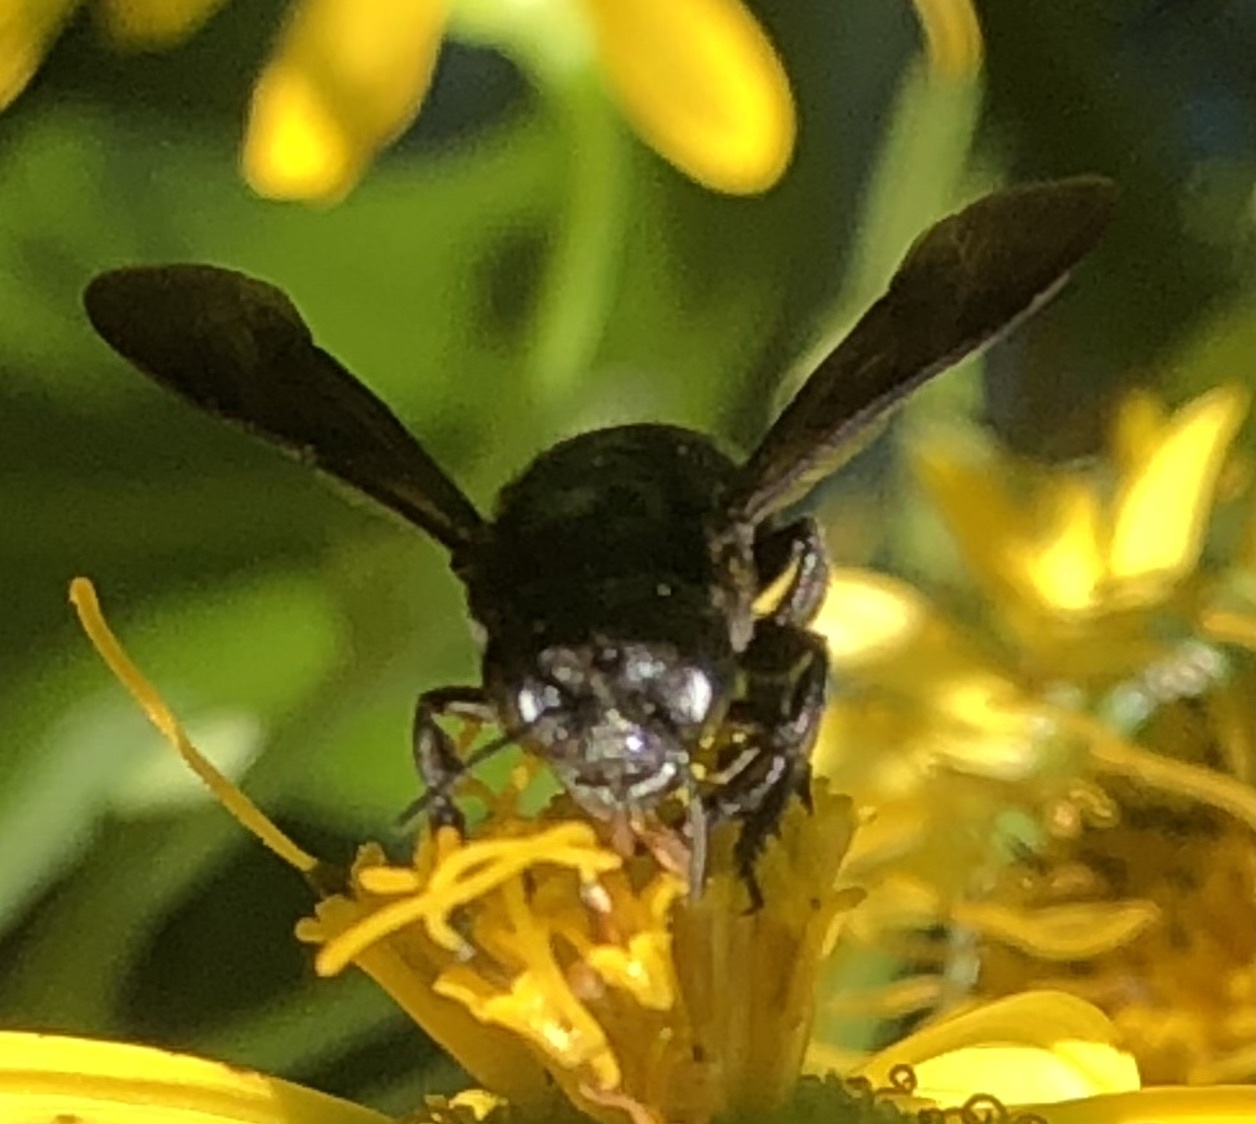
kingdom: Animalia
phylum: Arthropoda
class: Insecta
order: Hymenoptera
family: Megachilidae
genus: Megachile
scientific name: Megachile xylocopoides
